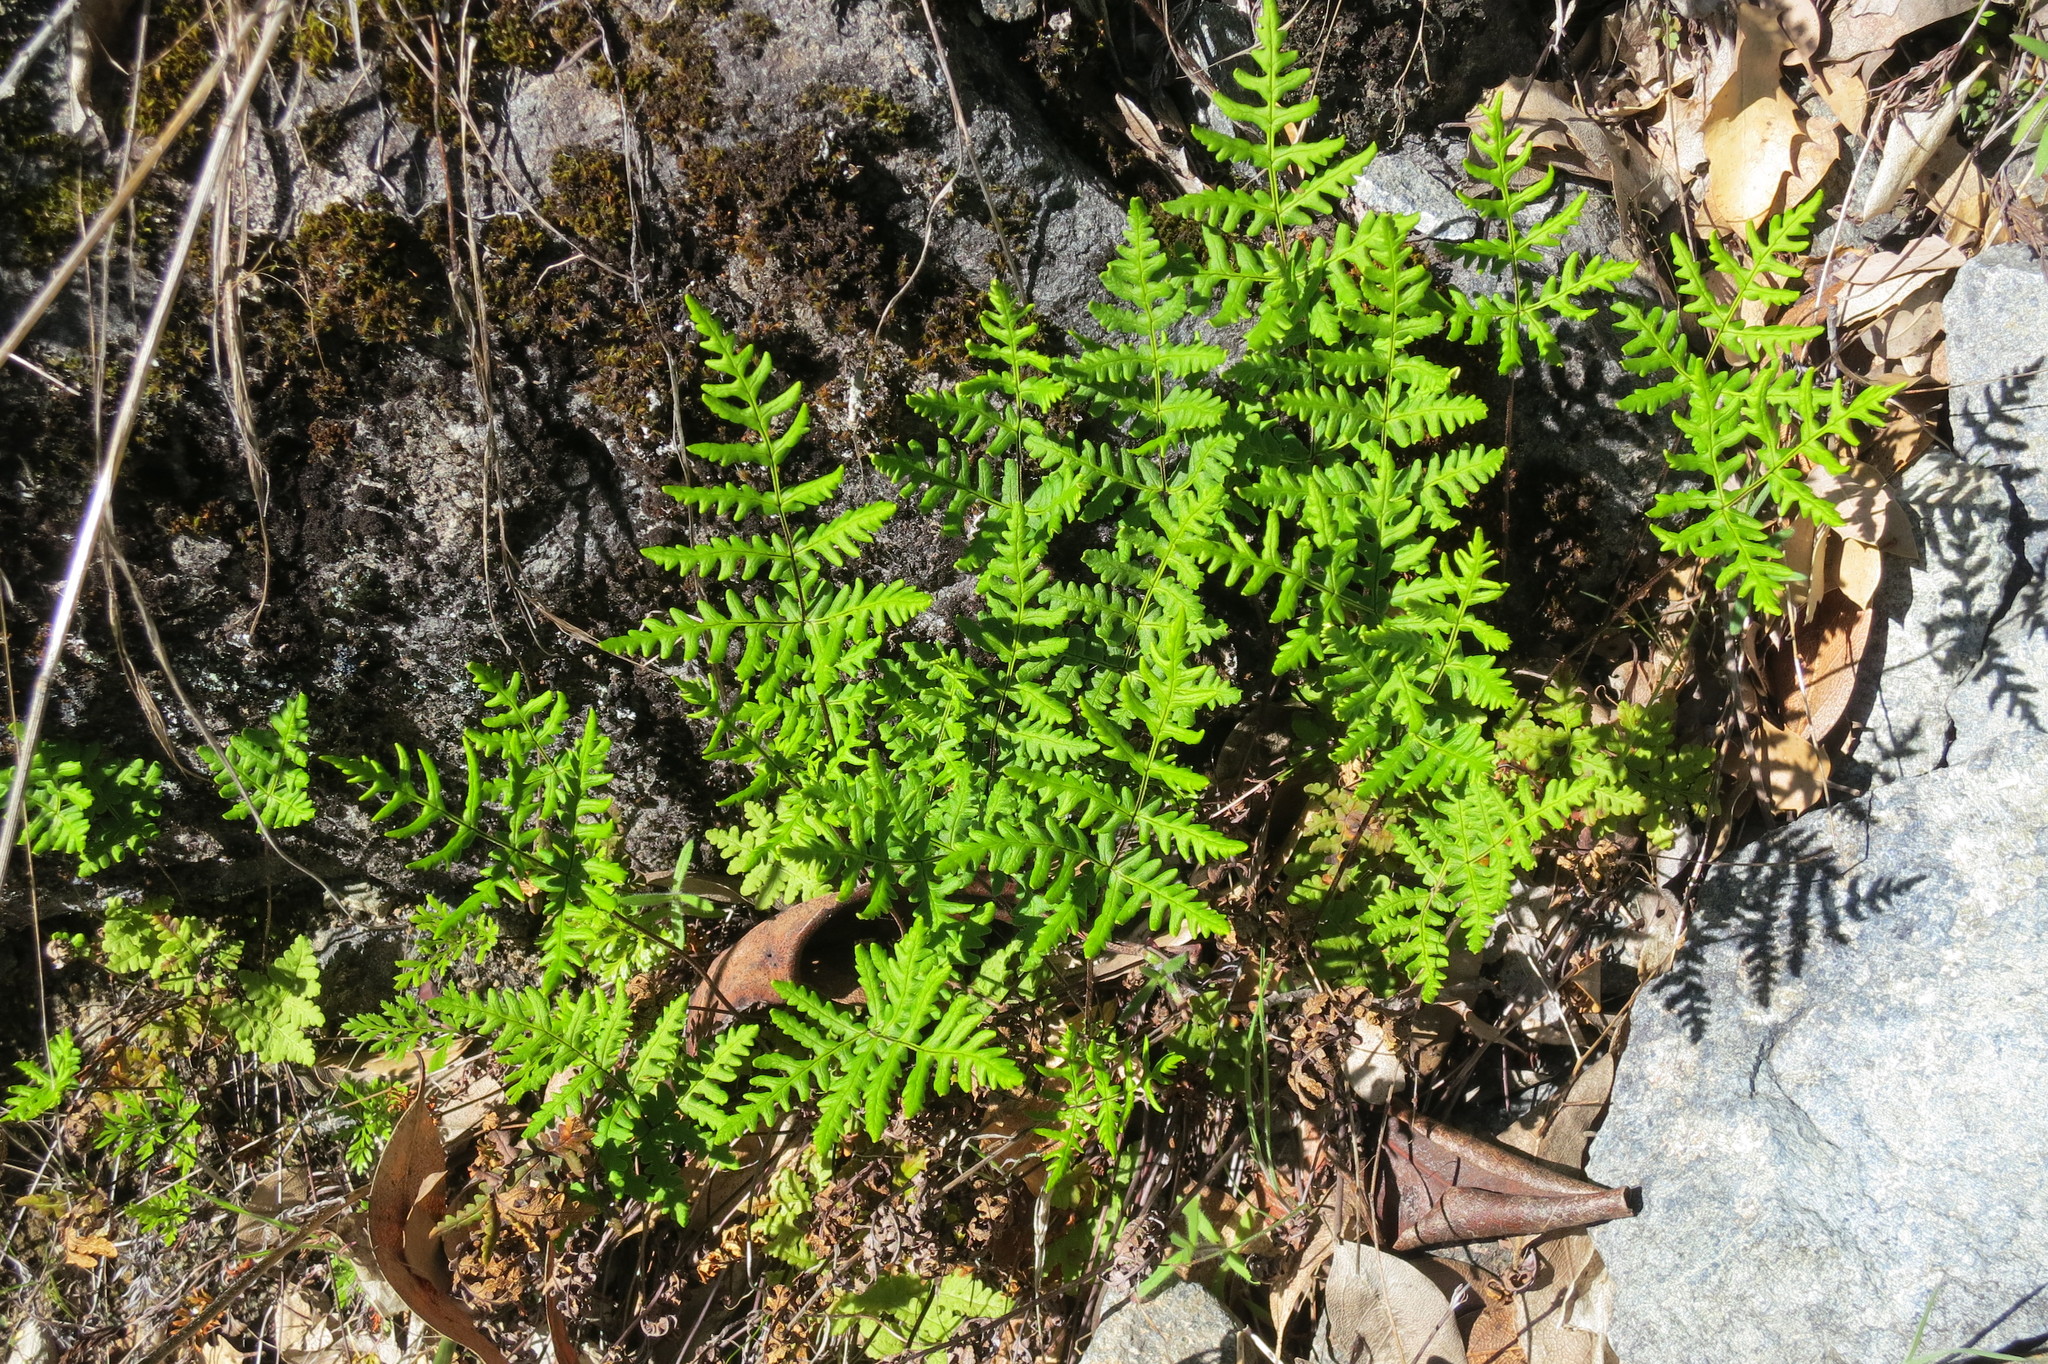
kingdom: Plantae
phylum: Tracheophyta
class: Polypodiopsida
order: Polypodiales
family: Pteridaceae
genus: Pentagramma
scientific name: Pentagramma triangularis
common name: Gold fern
